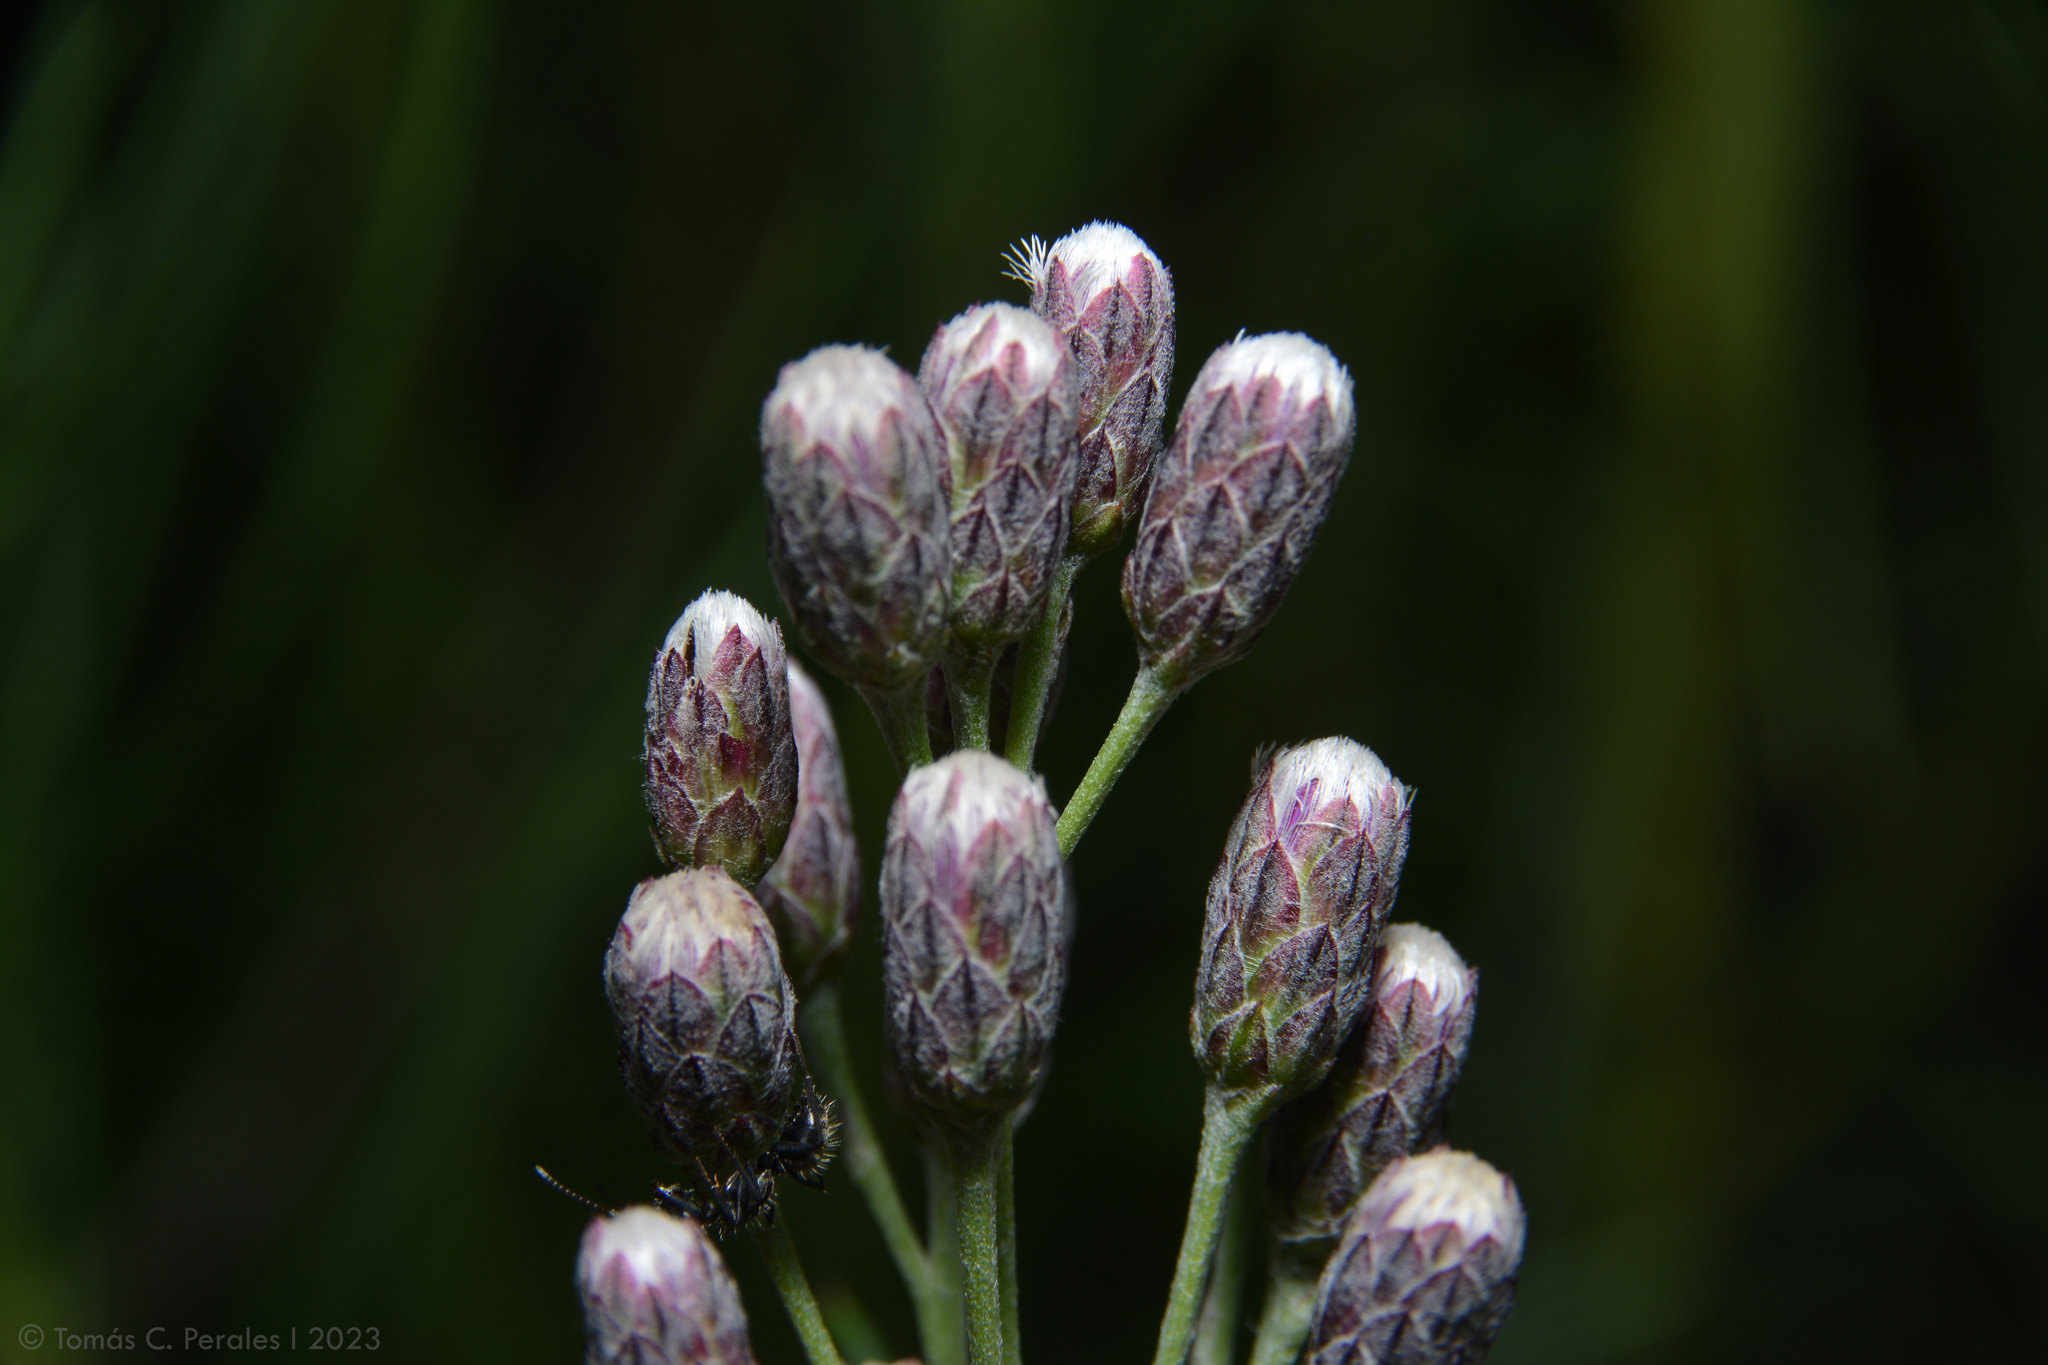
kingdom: Plantae
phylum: Tracheophyta
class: Magnoliopsida
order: Asterales
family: Asteraceae
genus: Vernonanthura
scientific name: Vernonanthura nudiflora
